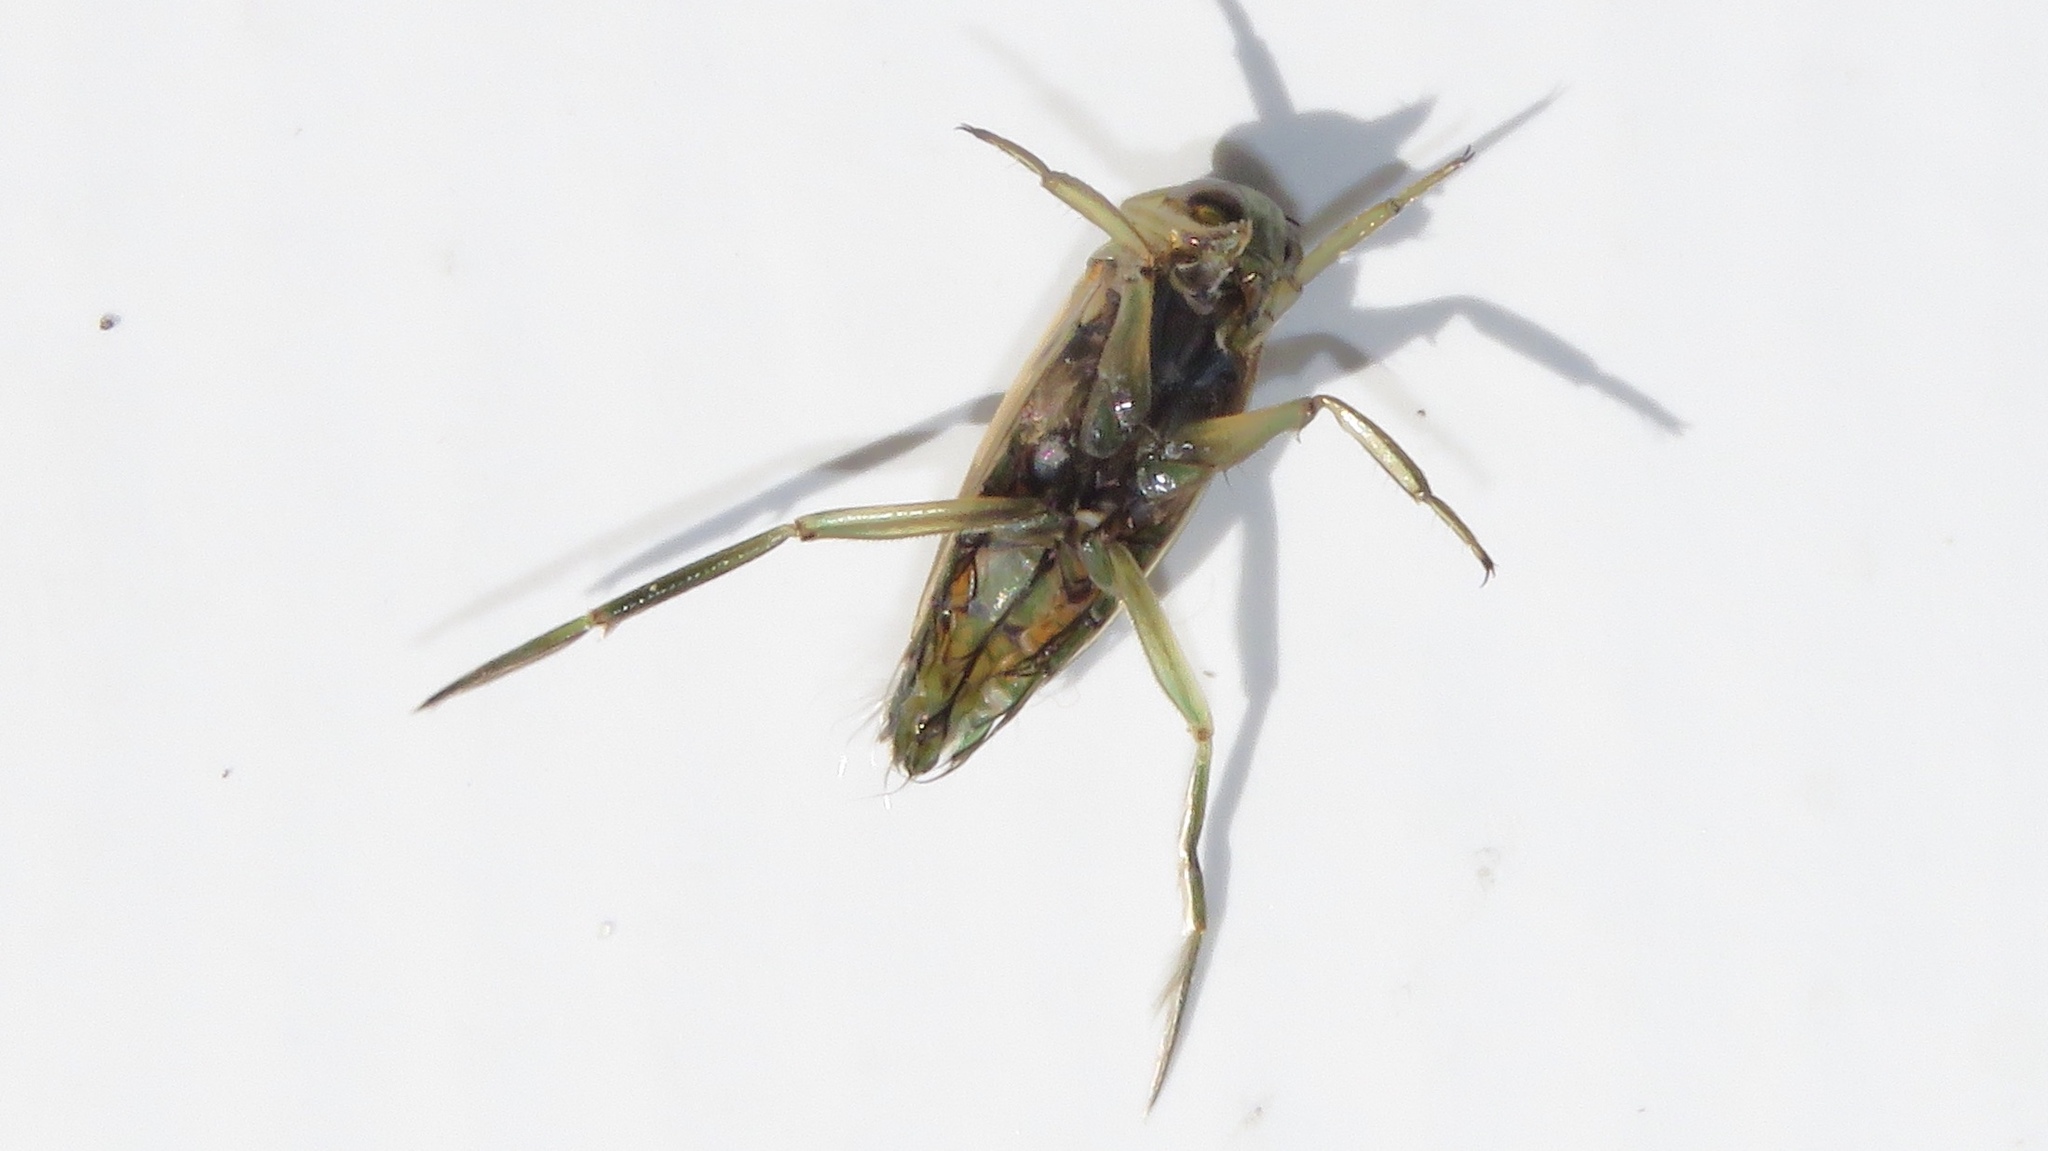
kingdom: Animalia
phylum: Arthropoda
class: Insecta
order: Hemiptera
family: Notonectidae
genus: Notonecta
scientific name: Notonecta undulata
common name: Grousewinged backswimmer
